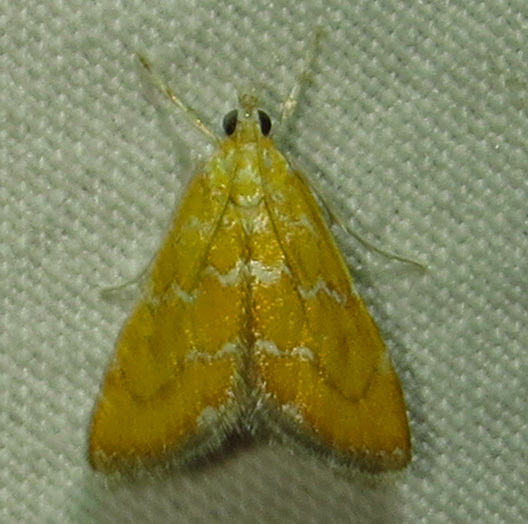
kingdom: Animalia
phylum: Arthropoda
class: Insecta
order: Lepidoptera
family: Crambidae
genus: Xanthophysa
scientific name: Xanthophysa psychicalis
